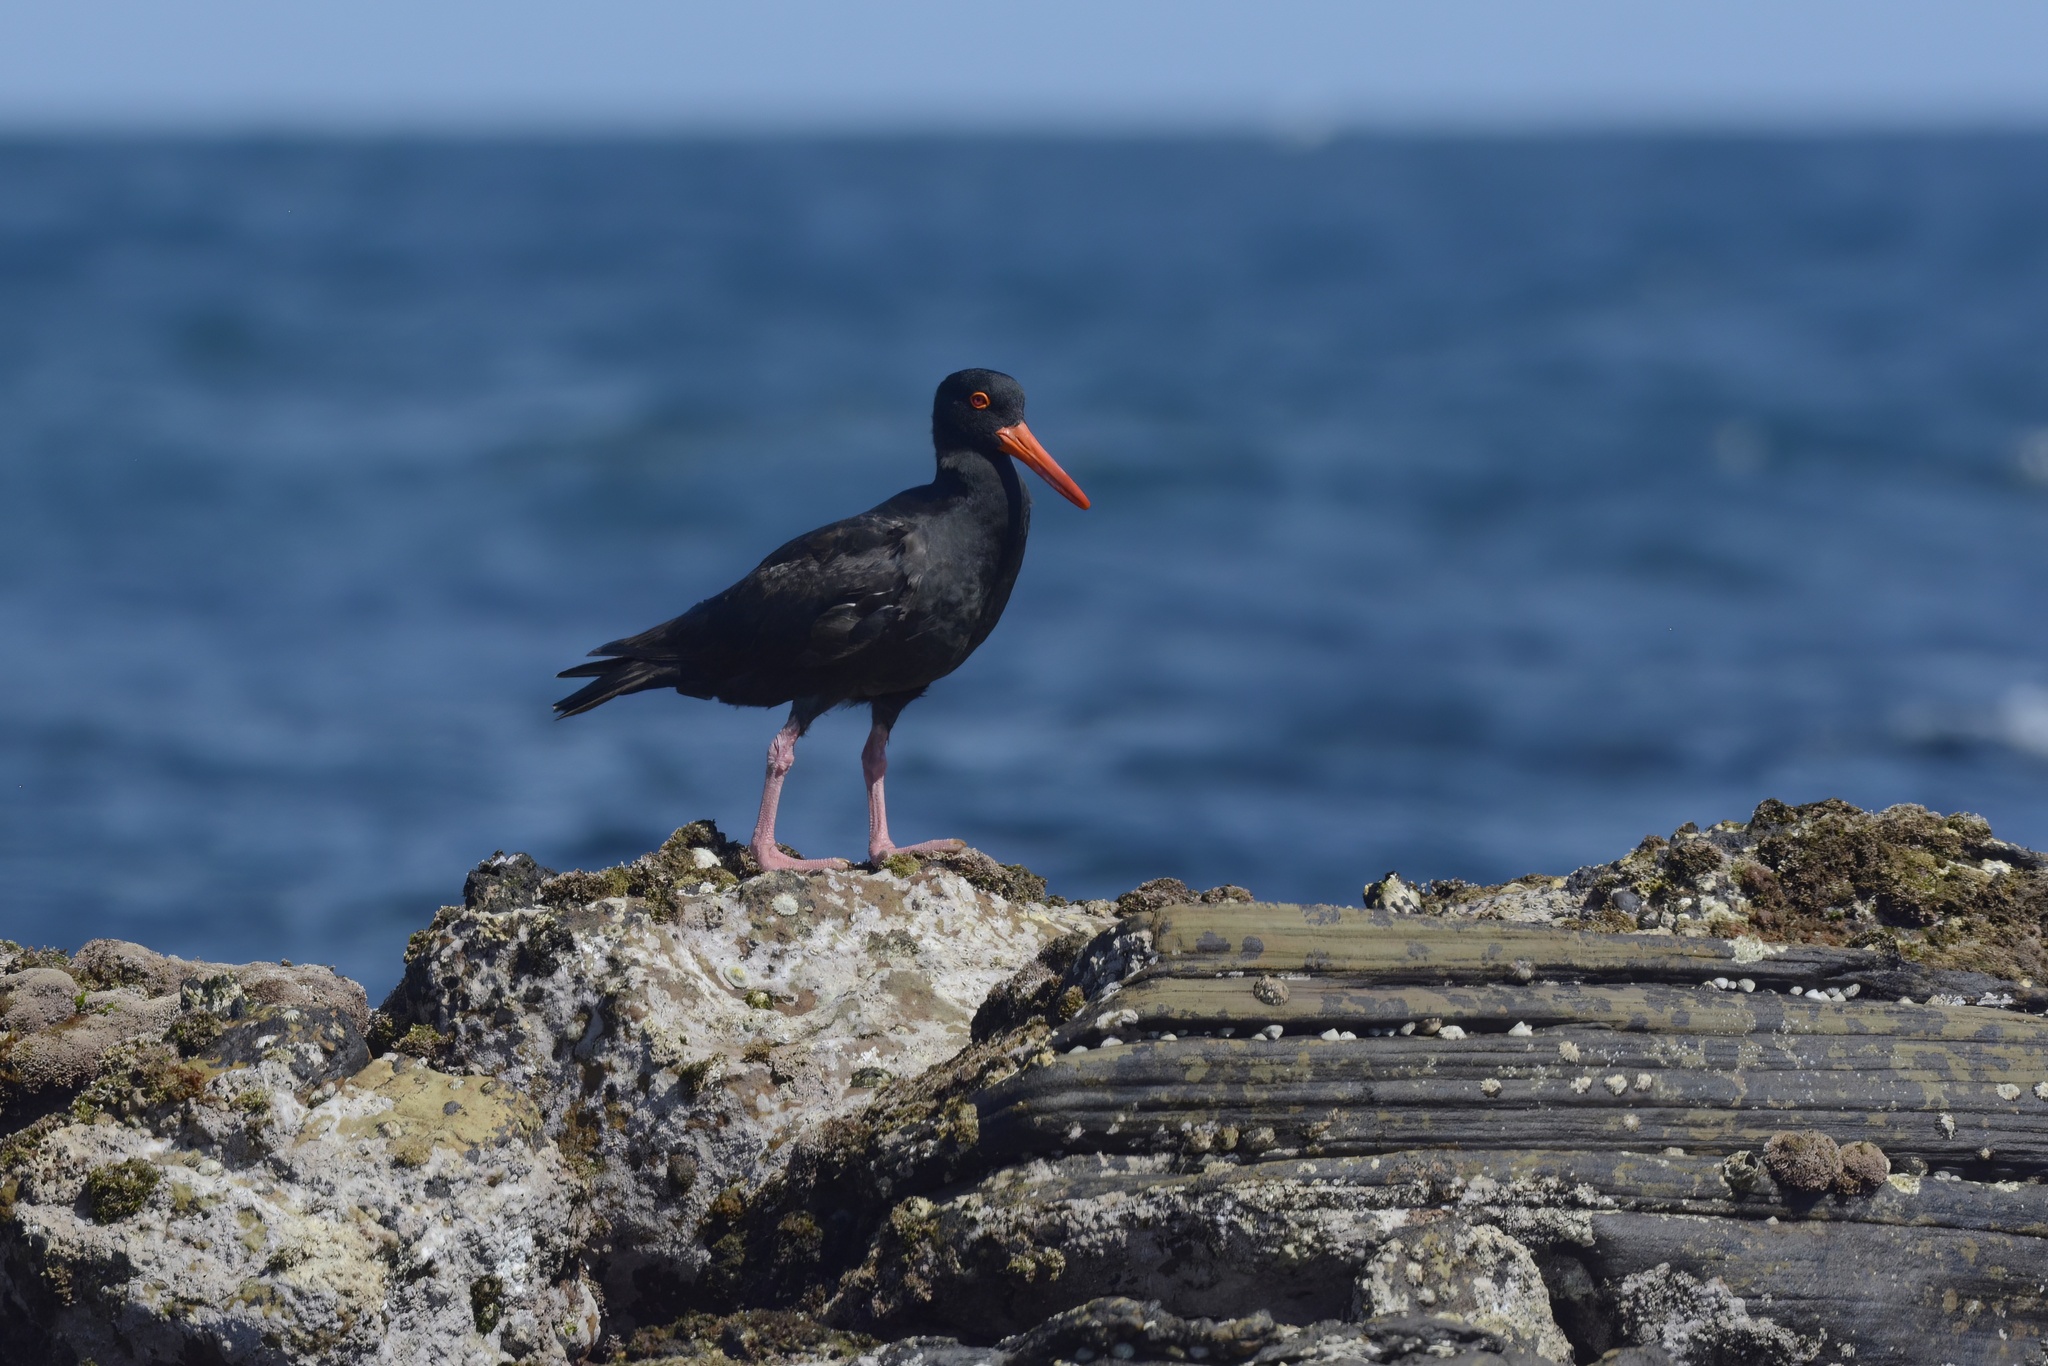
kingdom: Animalia
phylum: Chordata
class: Aves
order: Charadriiformes
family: Haematopodidae
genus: Haematopus
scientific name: Haematopus fuliginosus
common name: Sooty oystercatcher
